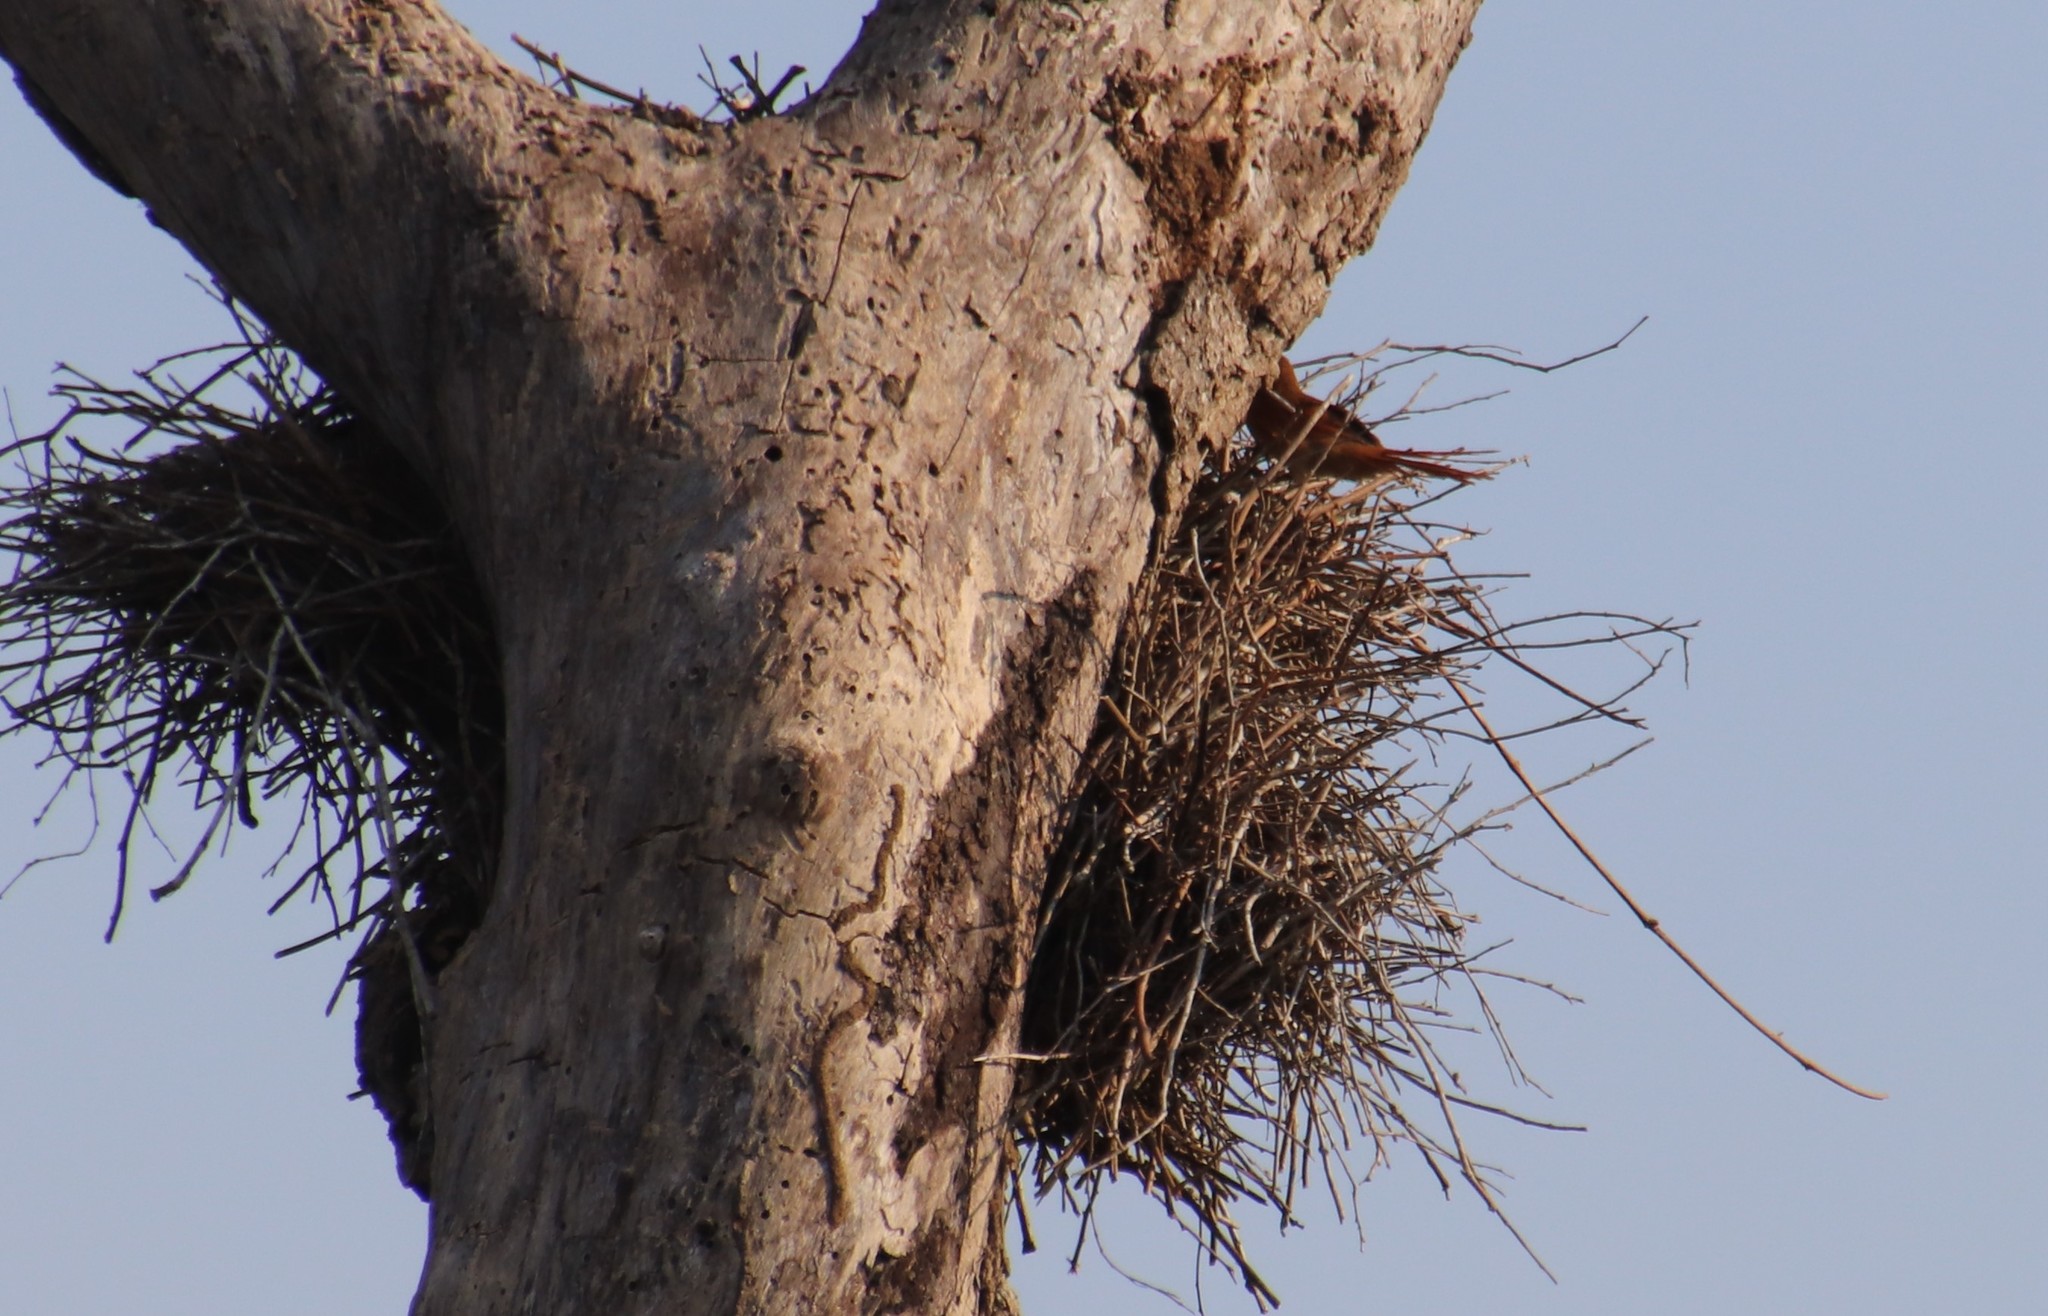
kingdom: Animalia
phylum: Chordata
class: Aves
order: Passeriformes
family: Furnariidae
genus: Phacellodomus
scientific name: Phacellodomus ruber
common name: Greater thornbird
